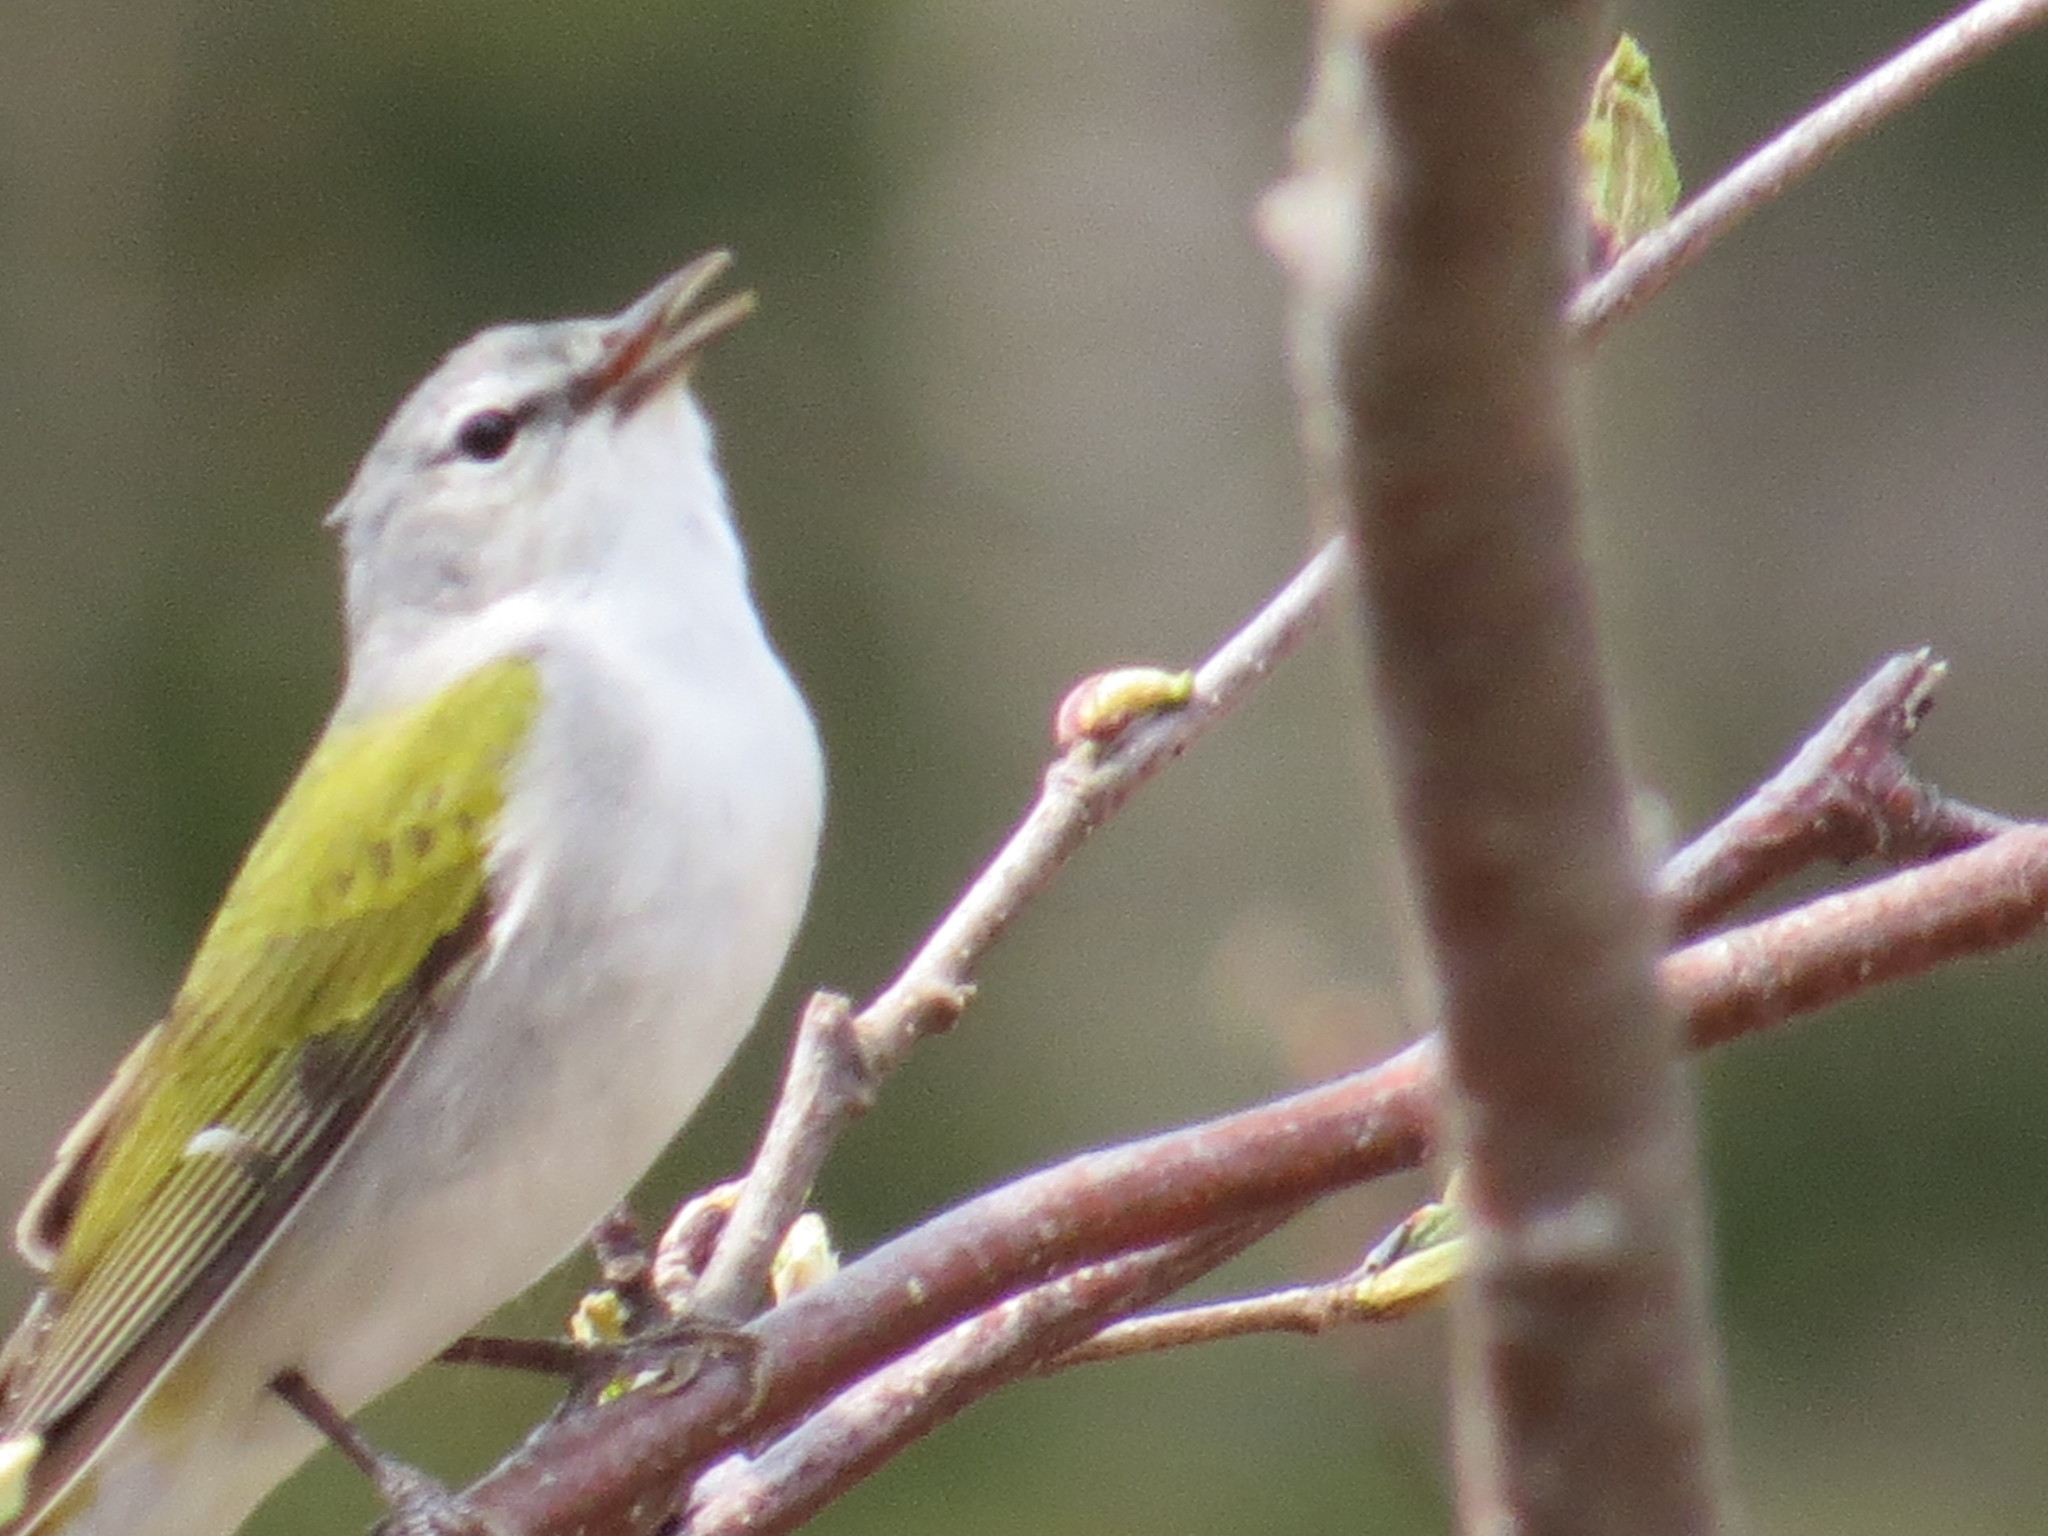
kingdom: Animalia
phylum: Chordata
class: Aves
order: Passeriformes
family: Parulidae
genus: Leiothlypis
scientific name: Leiothlypis peregrina
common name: Tennessee warbler
